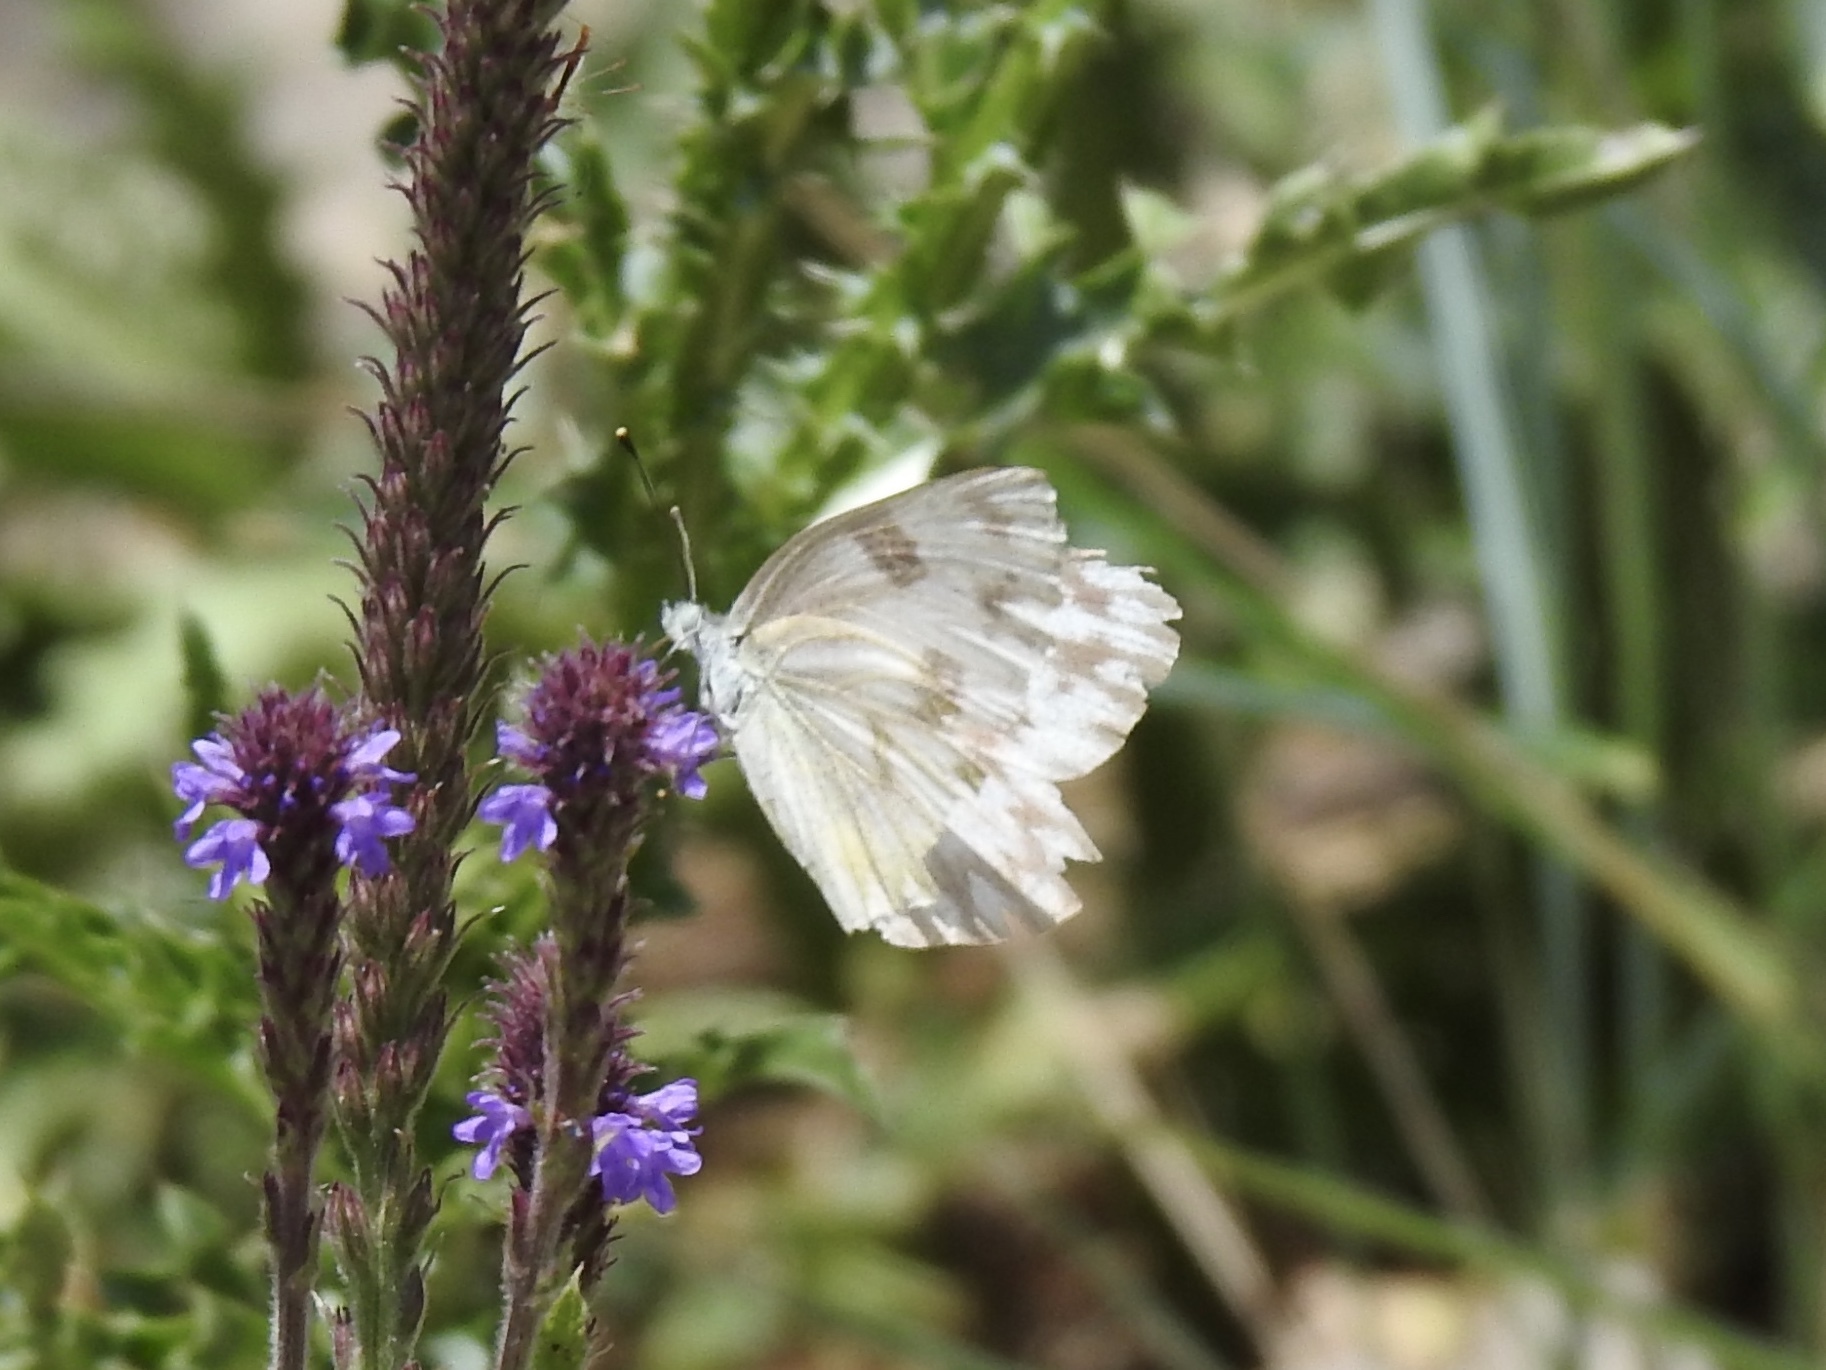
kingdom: Animalia
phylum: Arthropoda
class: Insecta
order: Lepidoptera
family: Pieridae
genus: Pontia
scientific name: Pontia protodice
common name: Checkered white
